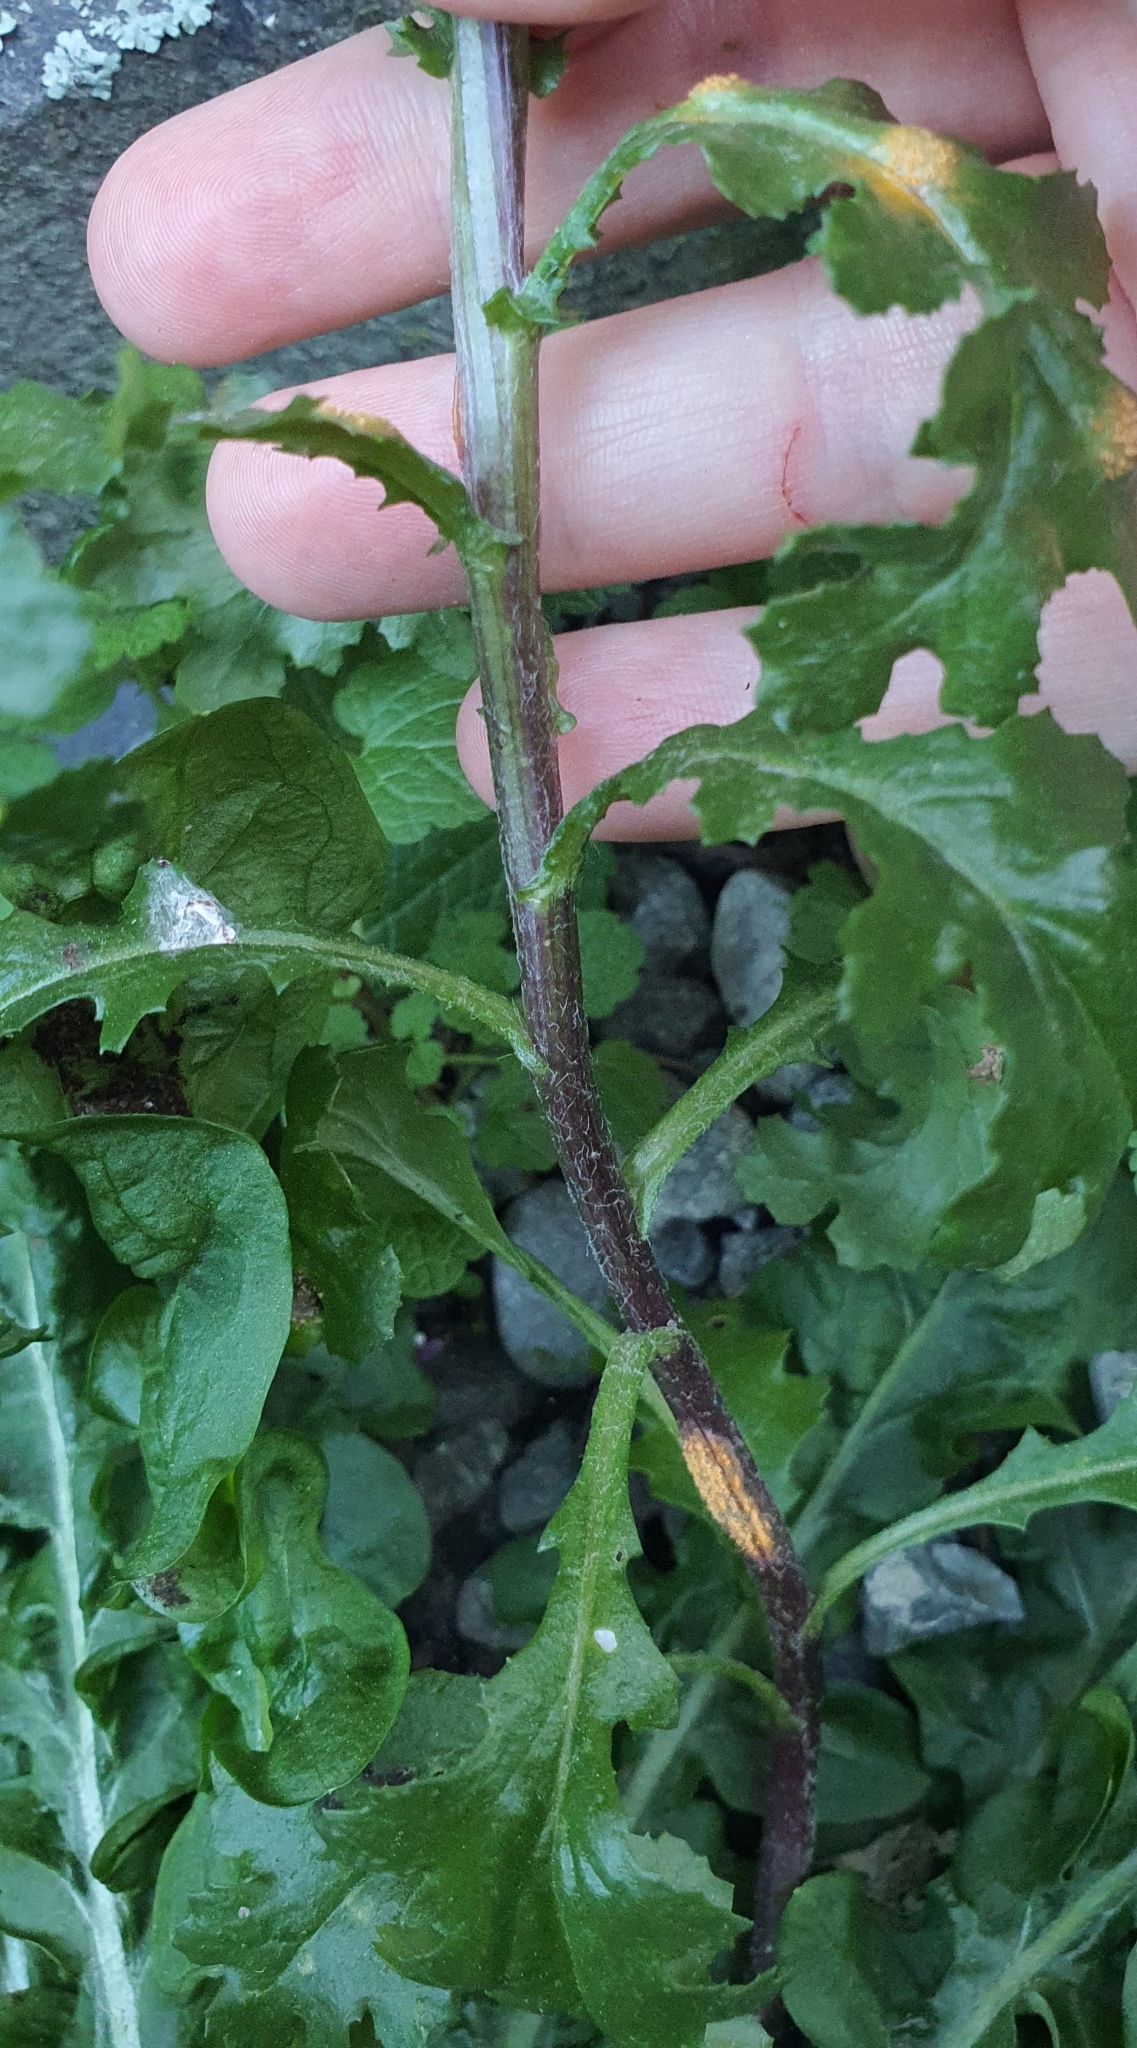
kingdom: Plantae
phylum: Tracheophyta
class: Magnoliopsida
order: Asterales
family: Asteraceae
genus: Senecio
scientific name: Senecio vulgaris
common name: Old-man-in-the-spring
